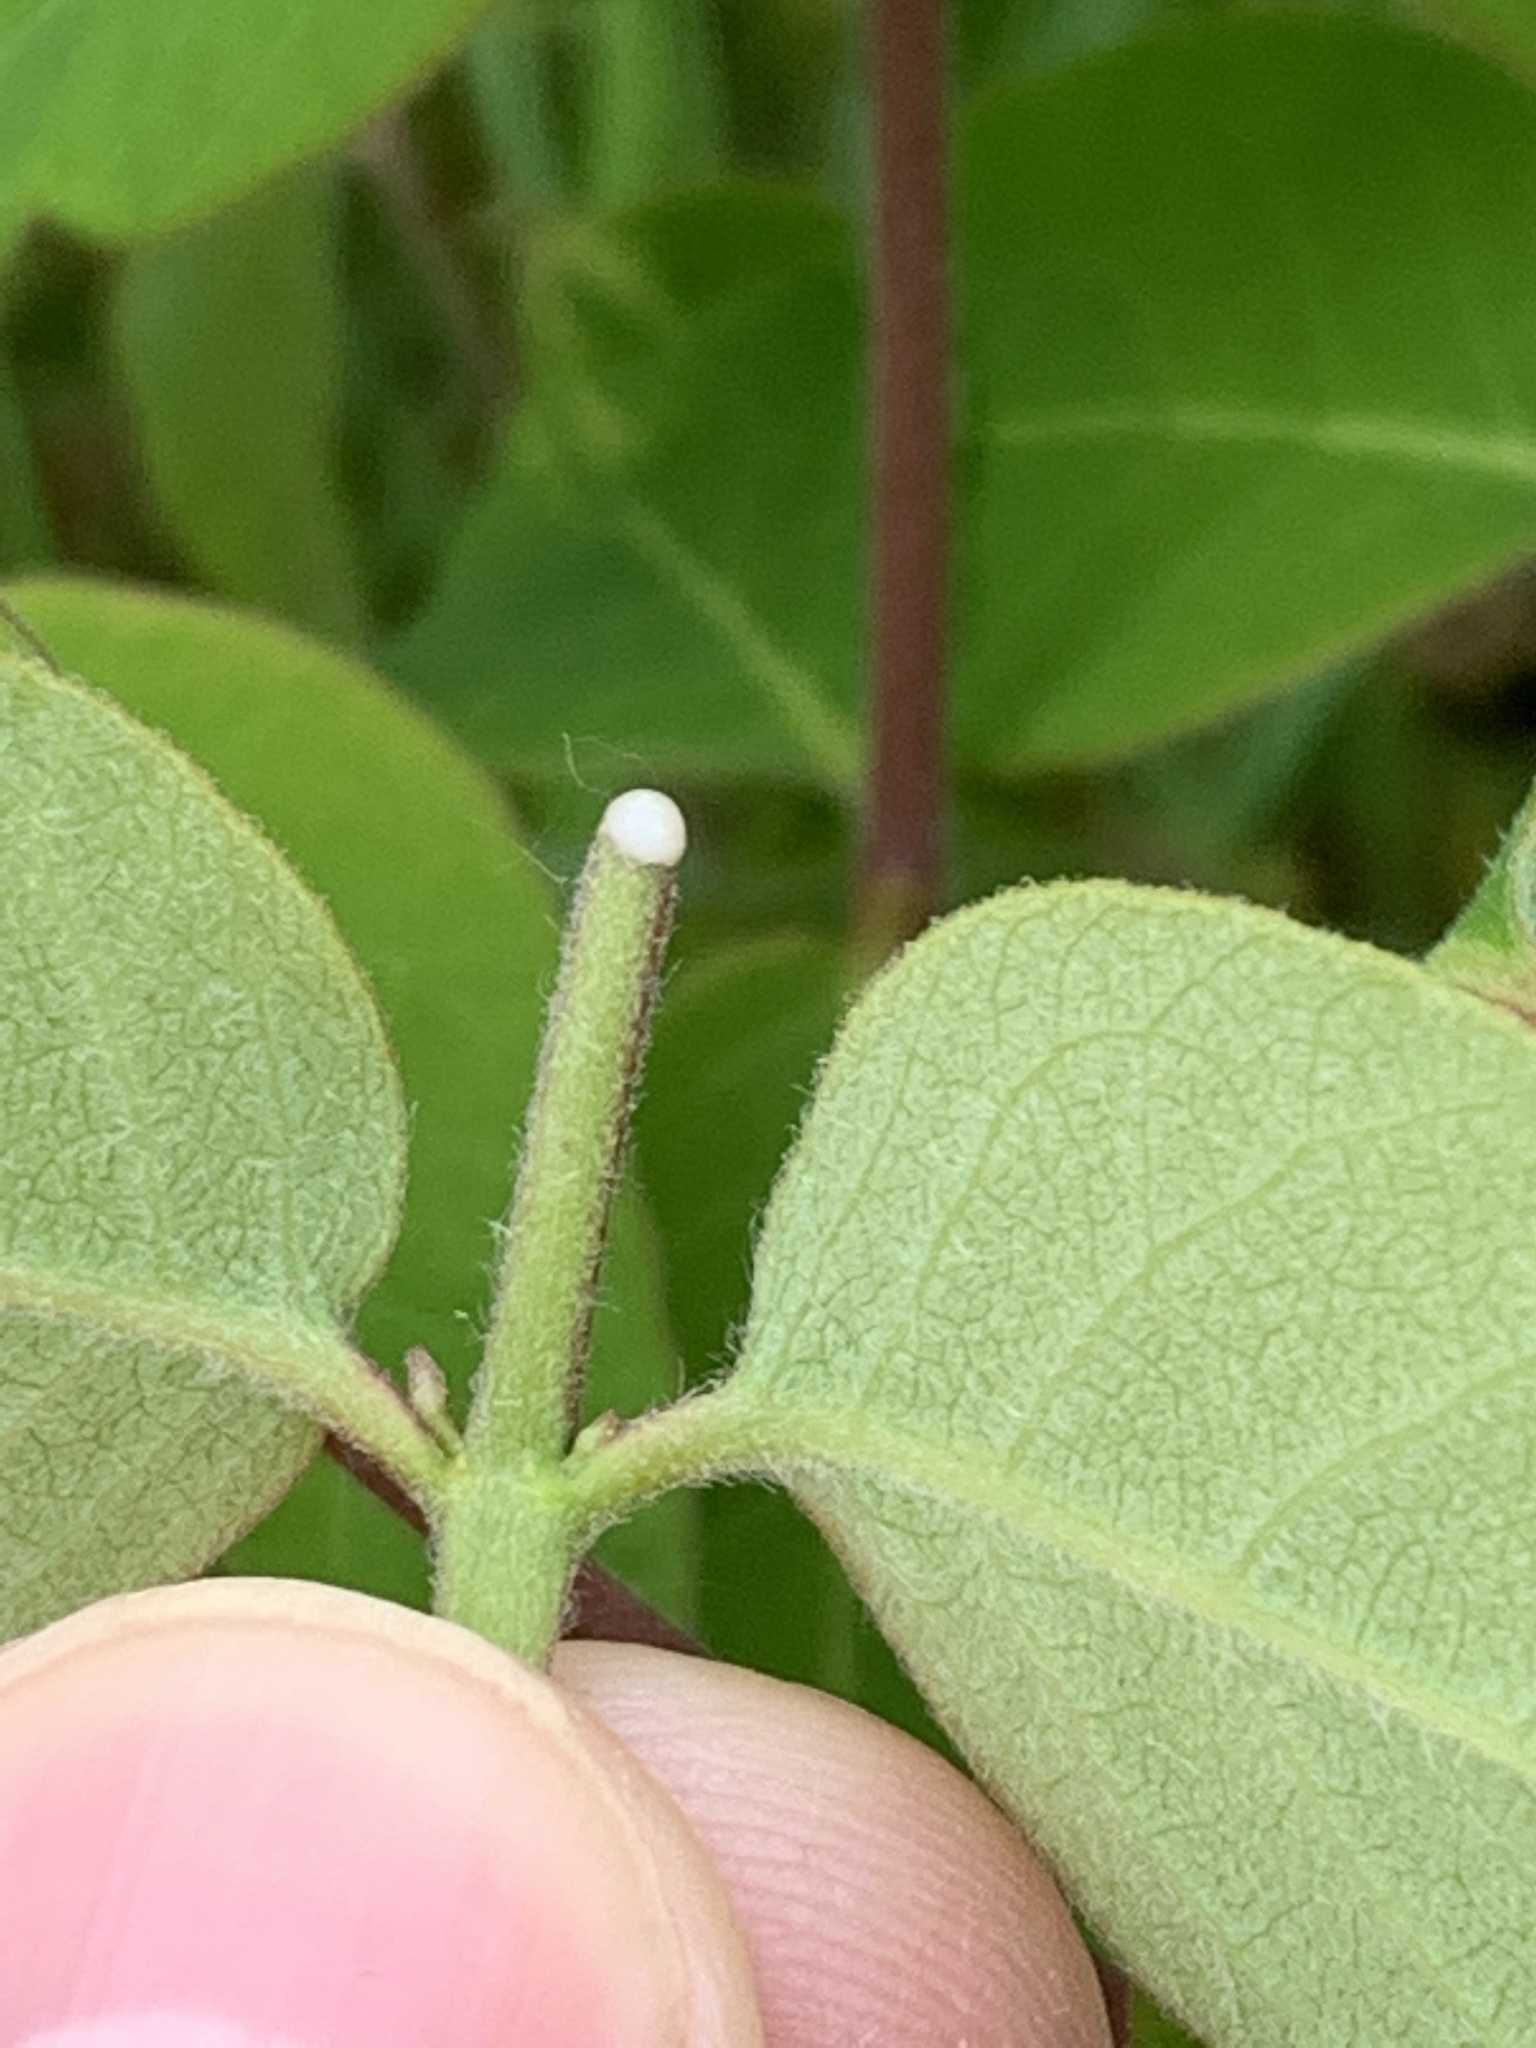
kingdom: Plantae
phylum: Tracheophyta
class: Magnoliopsida
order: Gentianales
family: Apocynaceae
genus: Apocynum
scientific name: Apocynum androsaemifolium
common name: Spreading dogbane
